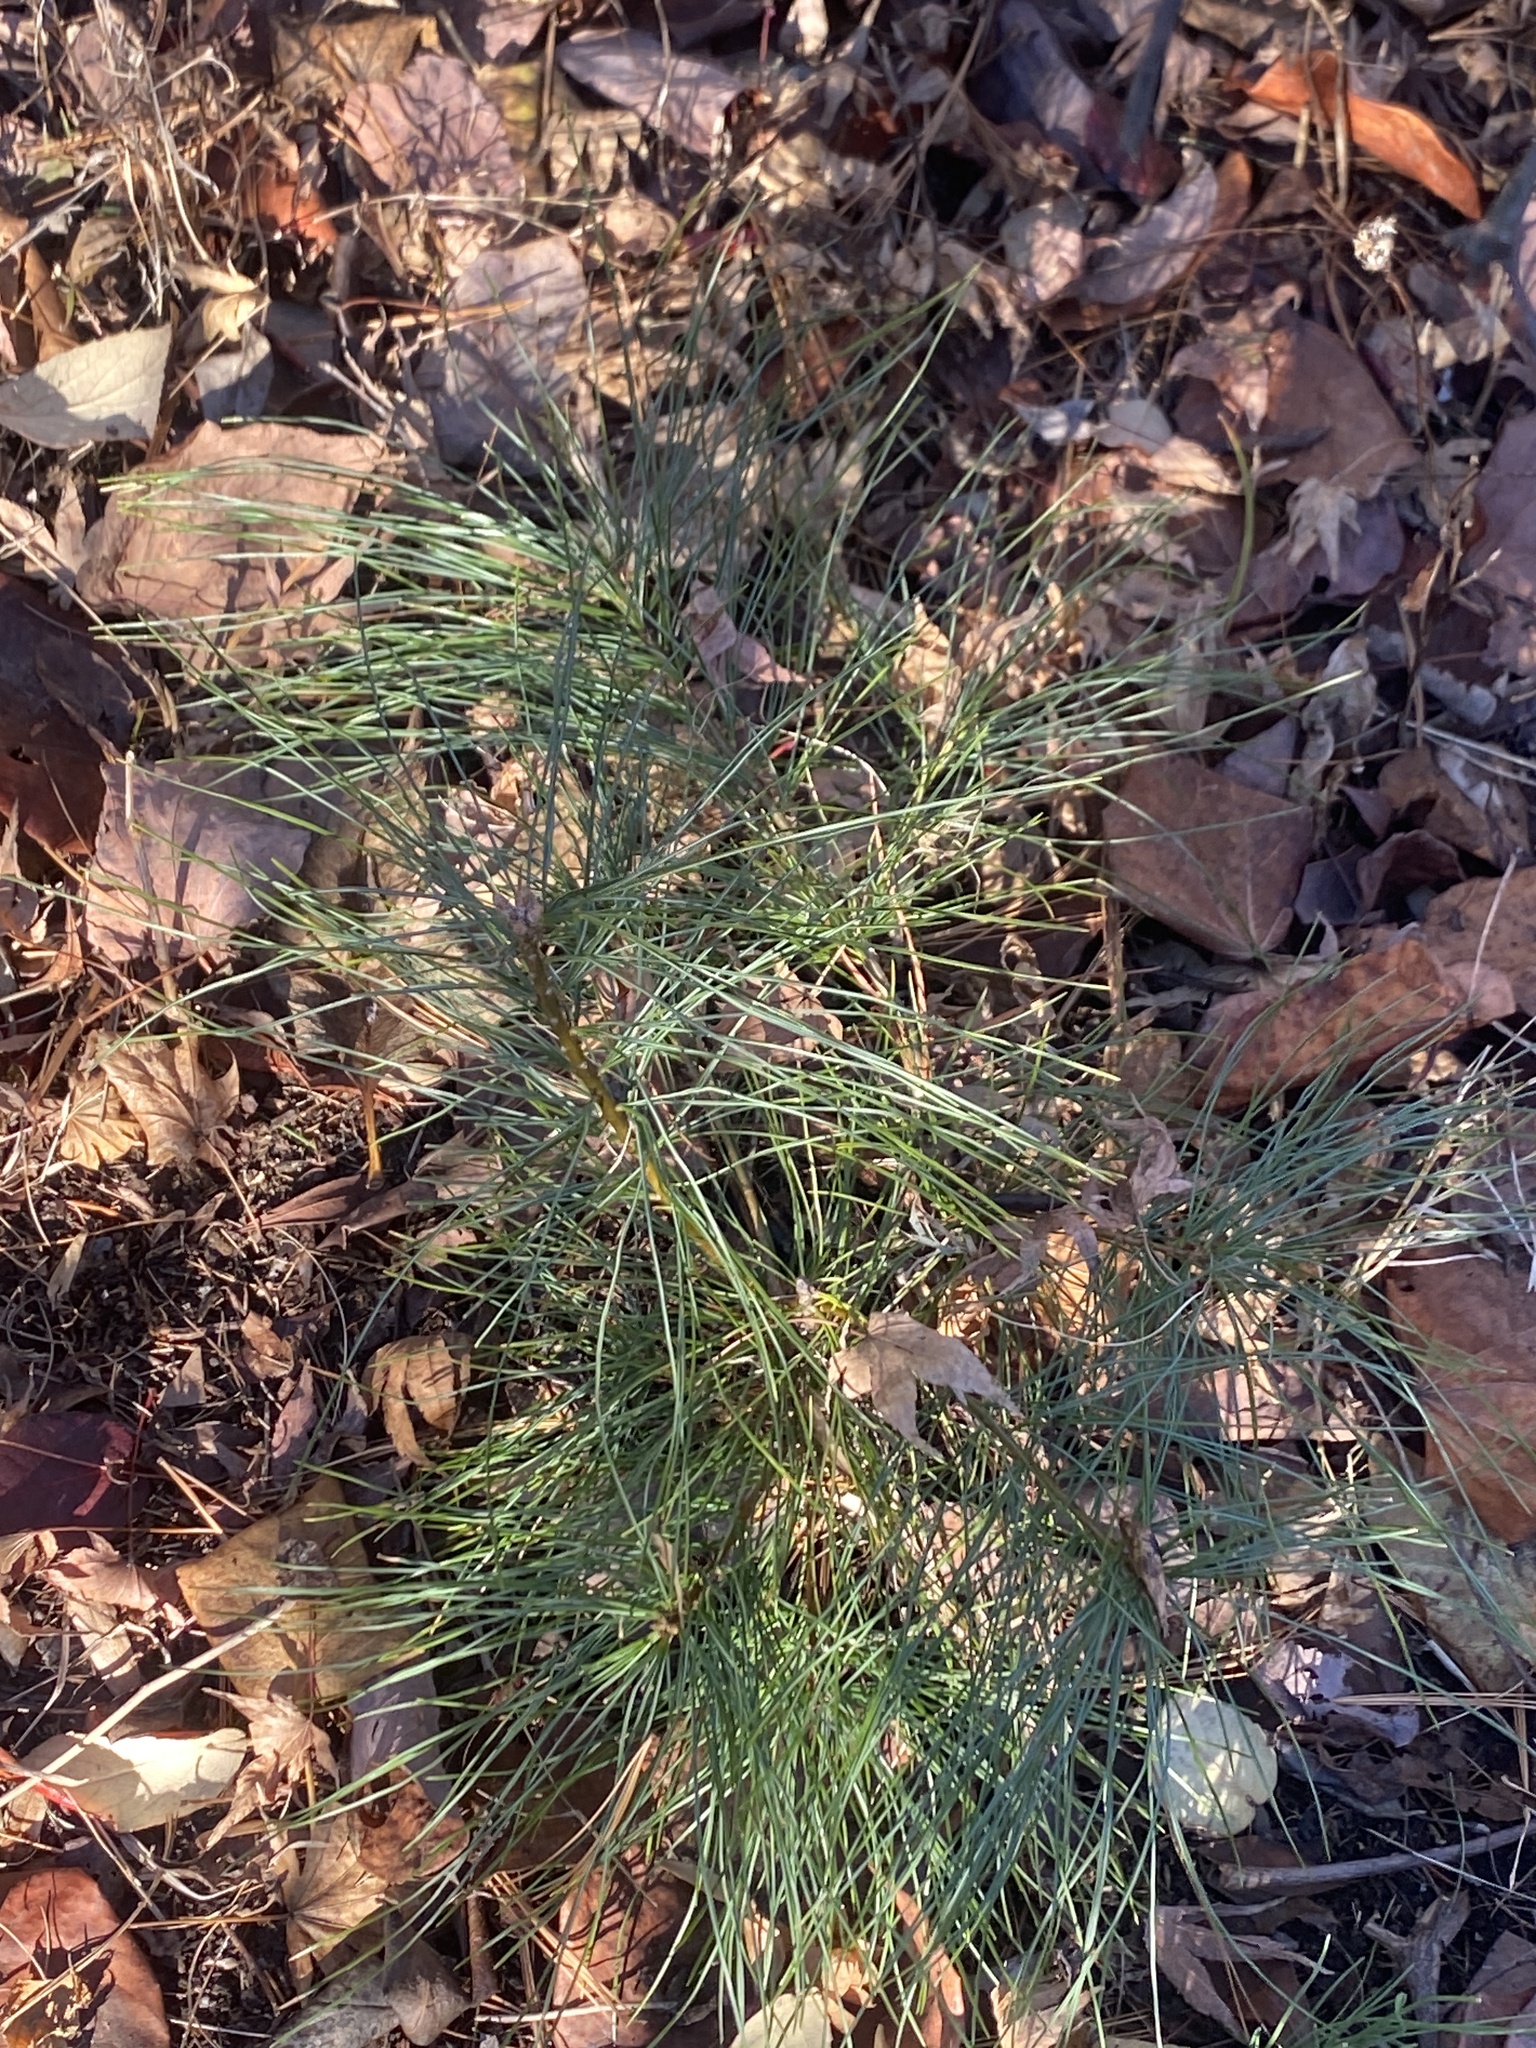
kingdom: Plantae
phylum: Tracheophyta
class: Pinopsida
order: Pinales
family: Pinaceae
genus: Pinus
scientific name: Pinus strobus
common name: Weymouth pine
